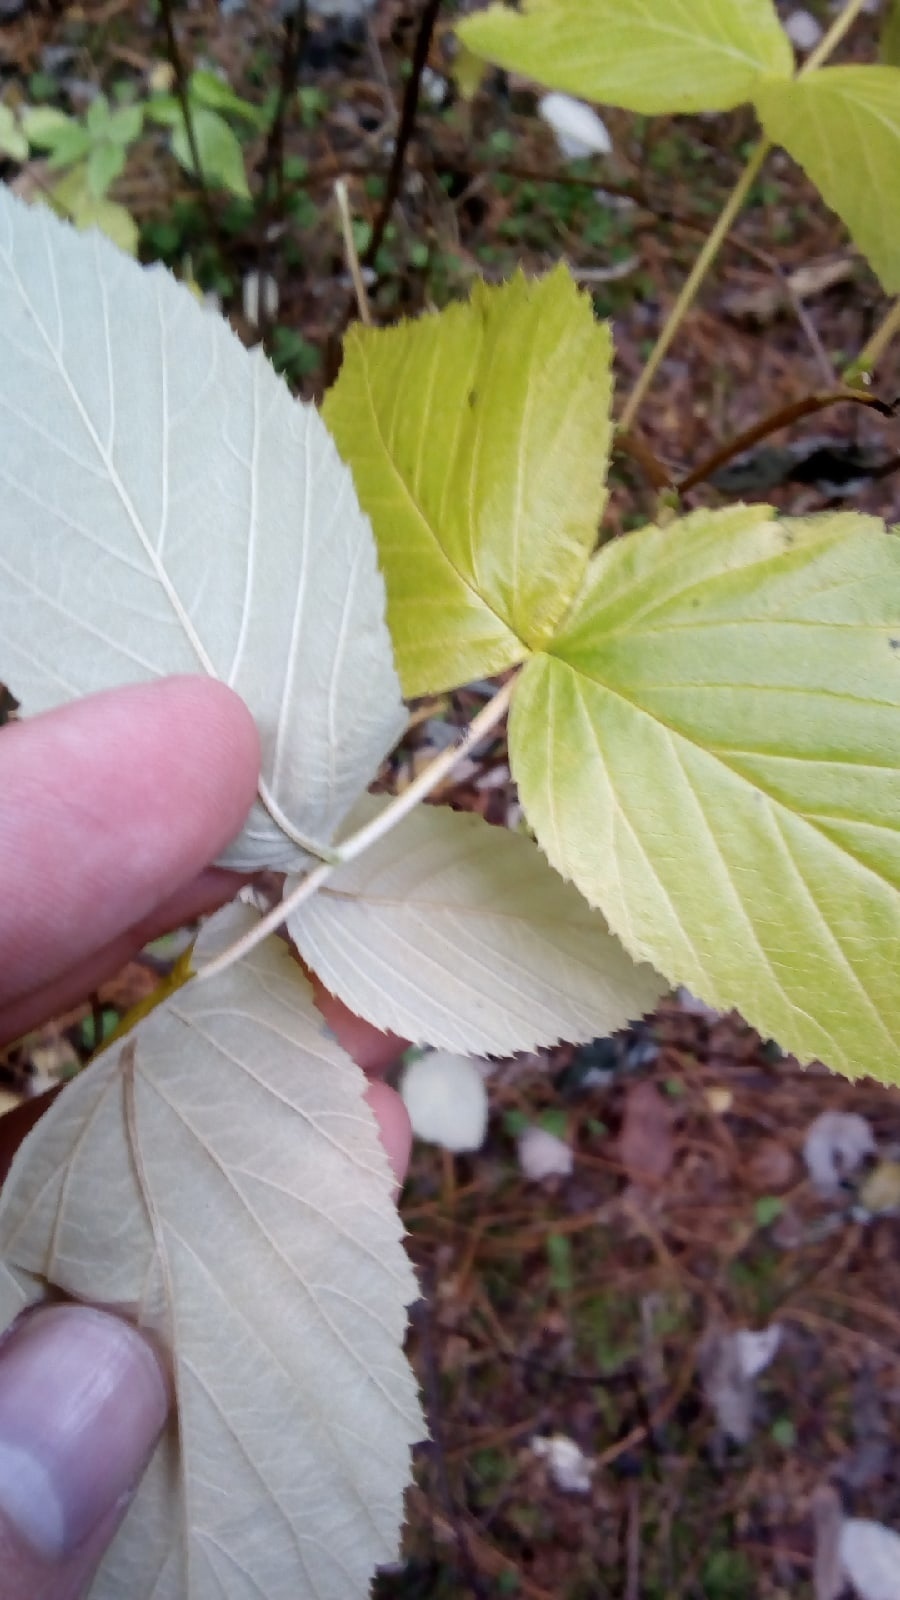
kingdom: Plantae
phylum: Tracheophyta
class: Magnoliopsida
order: Rosales
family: Rosaceae
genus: Rubus
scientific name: Rubus idaeus
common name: Raspberry
